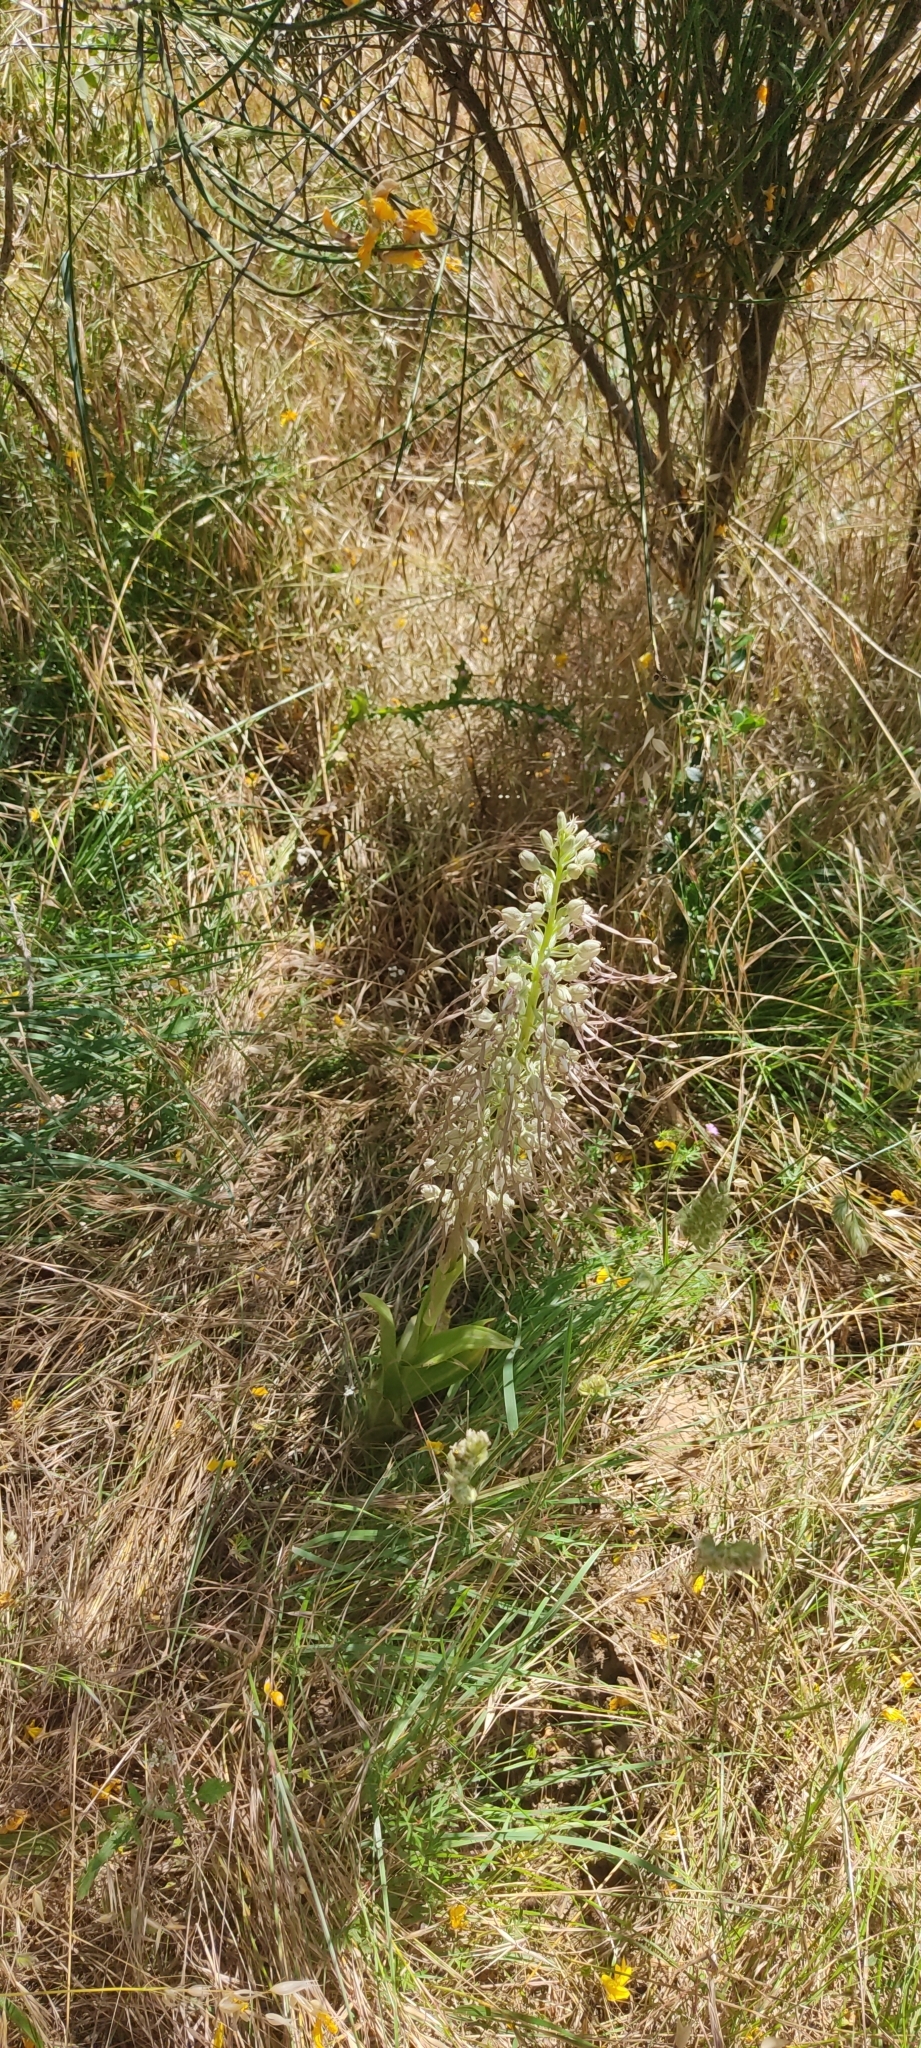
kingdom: Plantae
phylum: Tracheophyta
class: Liliopsida
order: Asparagales
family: Orchidaceae
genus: Himantoglossum
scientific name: Himantoglossum hircinum
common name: Lizard orchid
